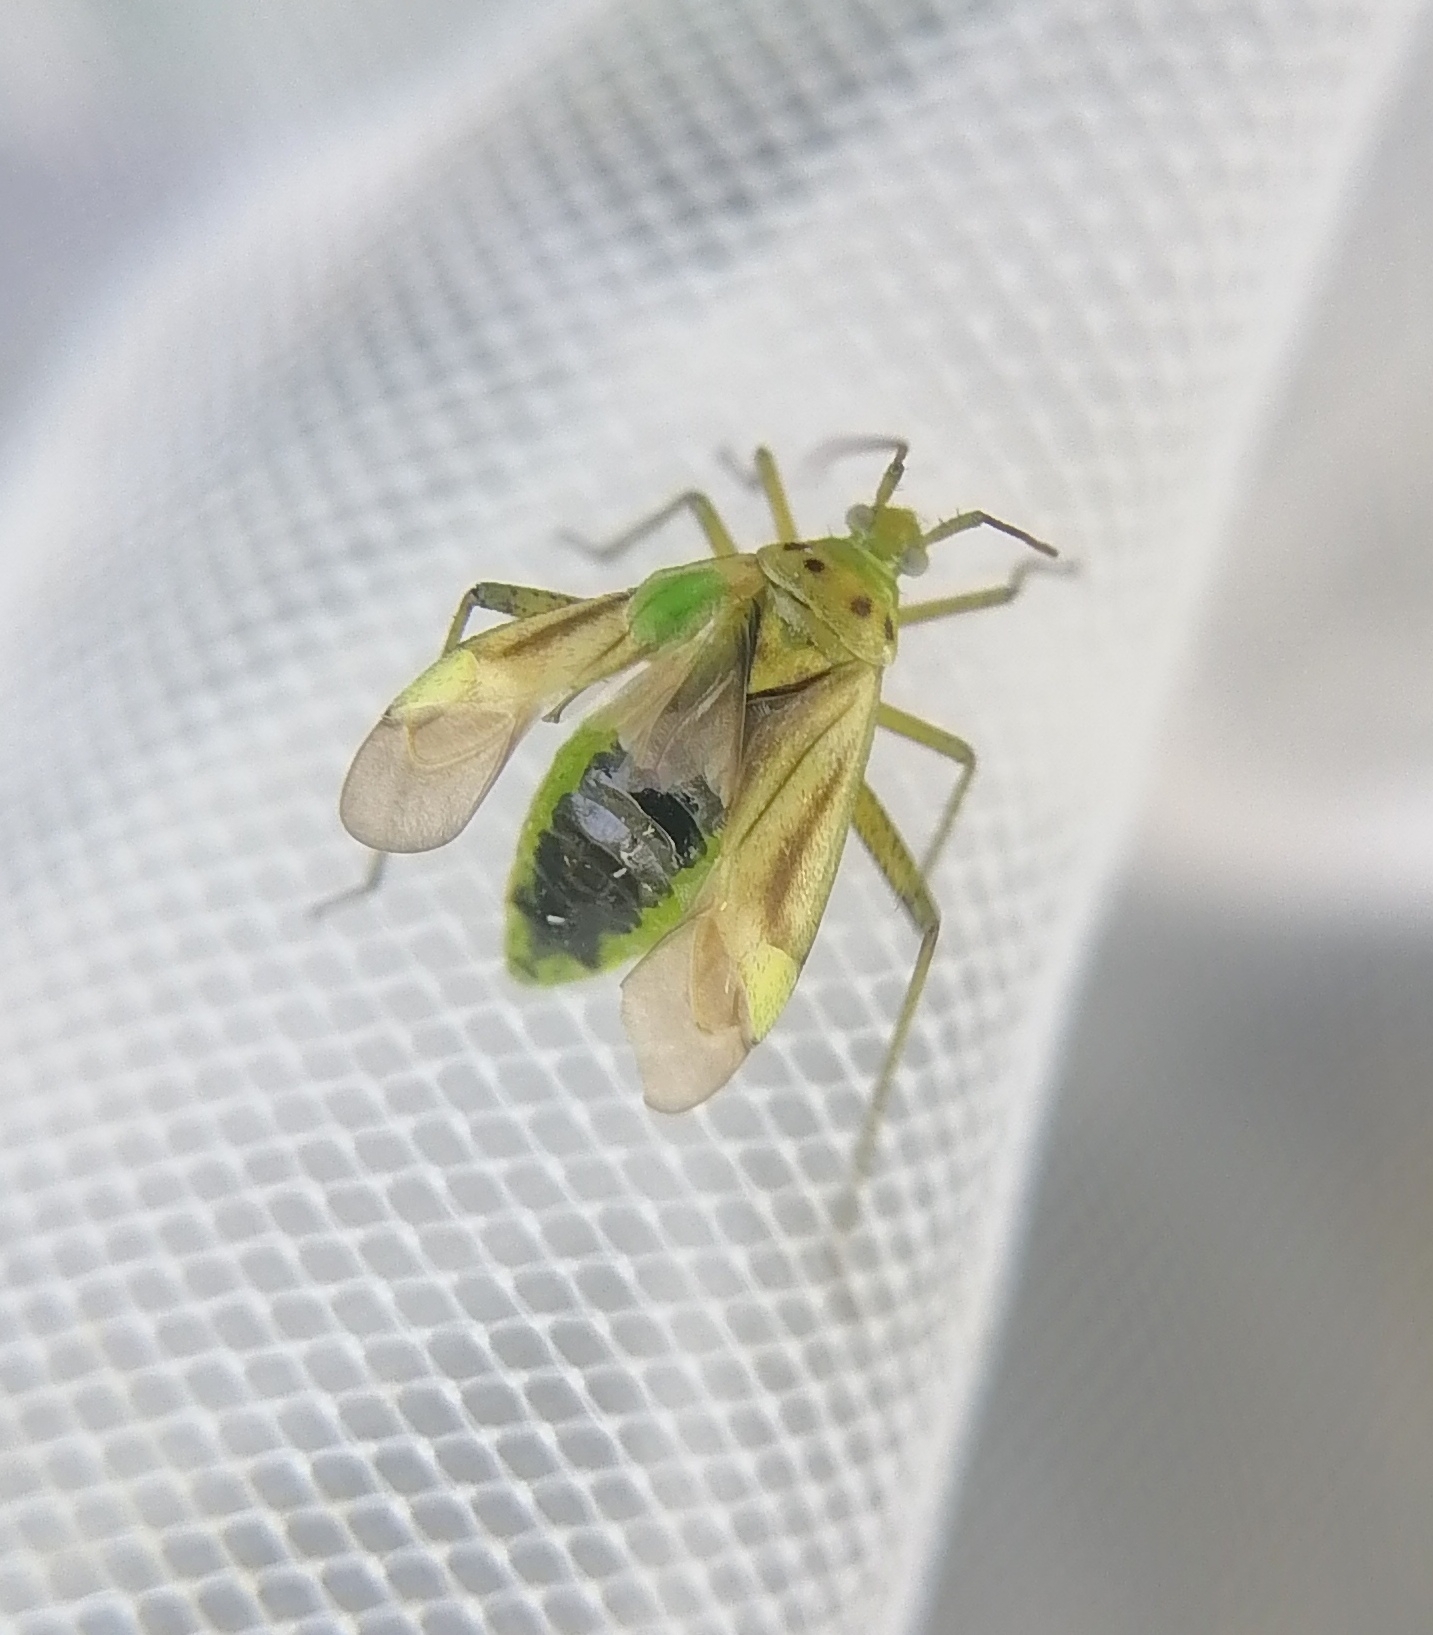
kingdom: Animalia
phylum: Arthropoda
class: Insecta
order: Hemiptera
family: Miridae
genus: Adelphocoris
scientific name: Adelphocoris quadripunctatus
